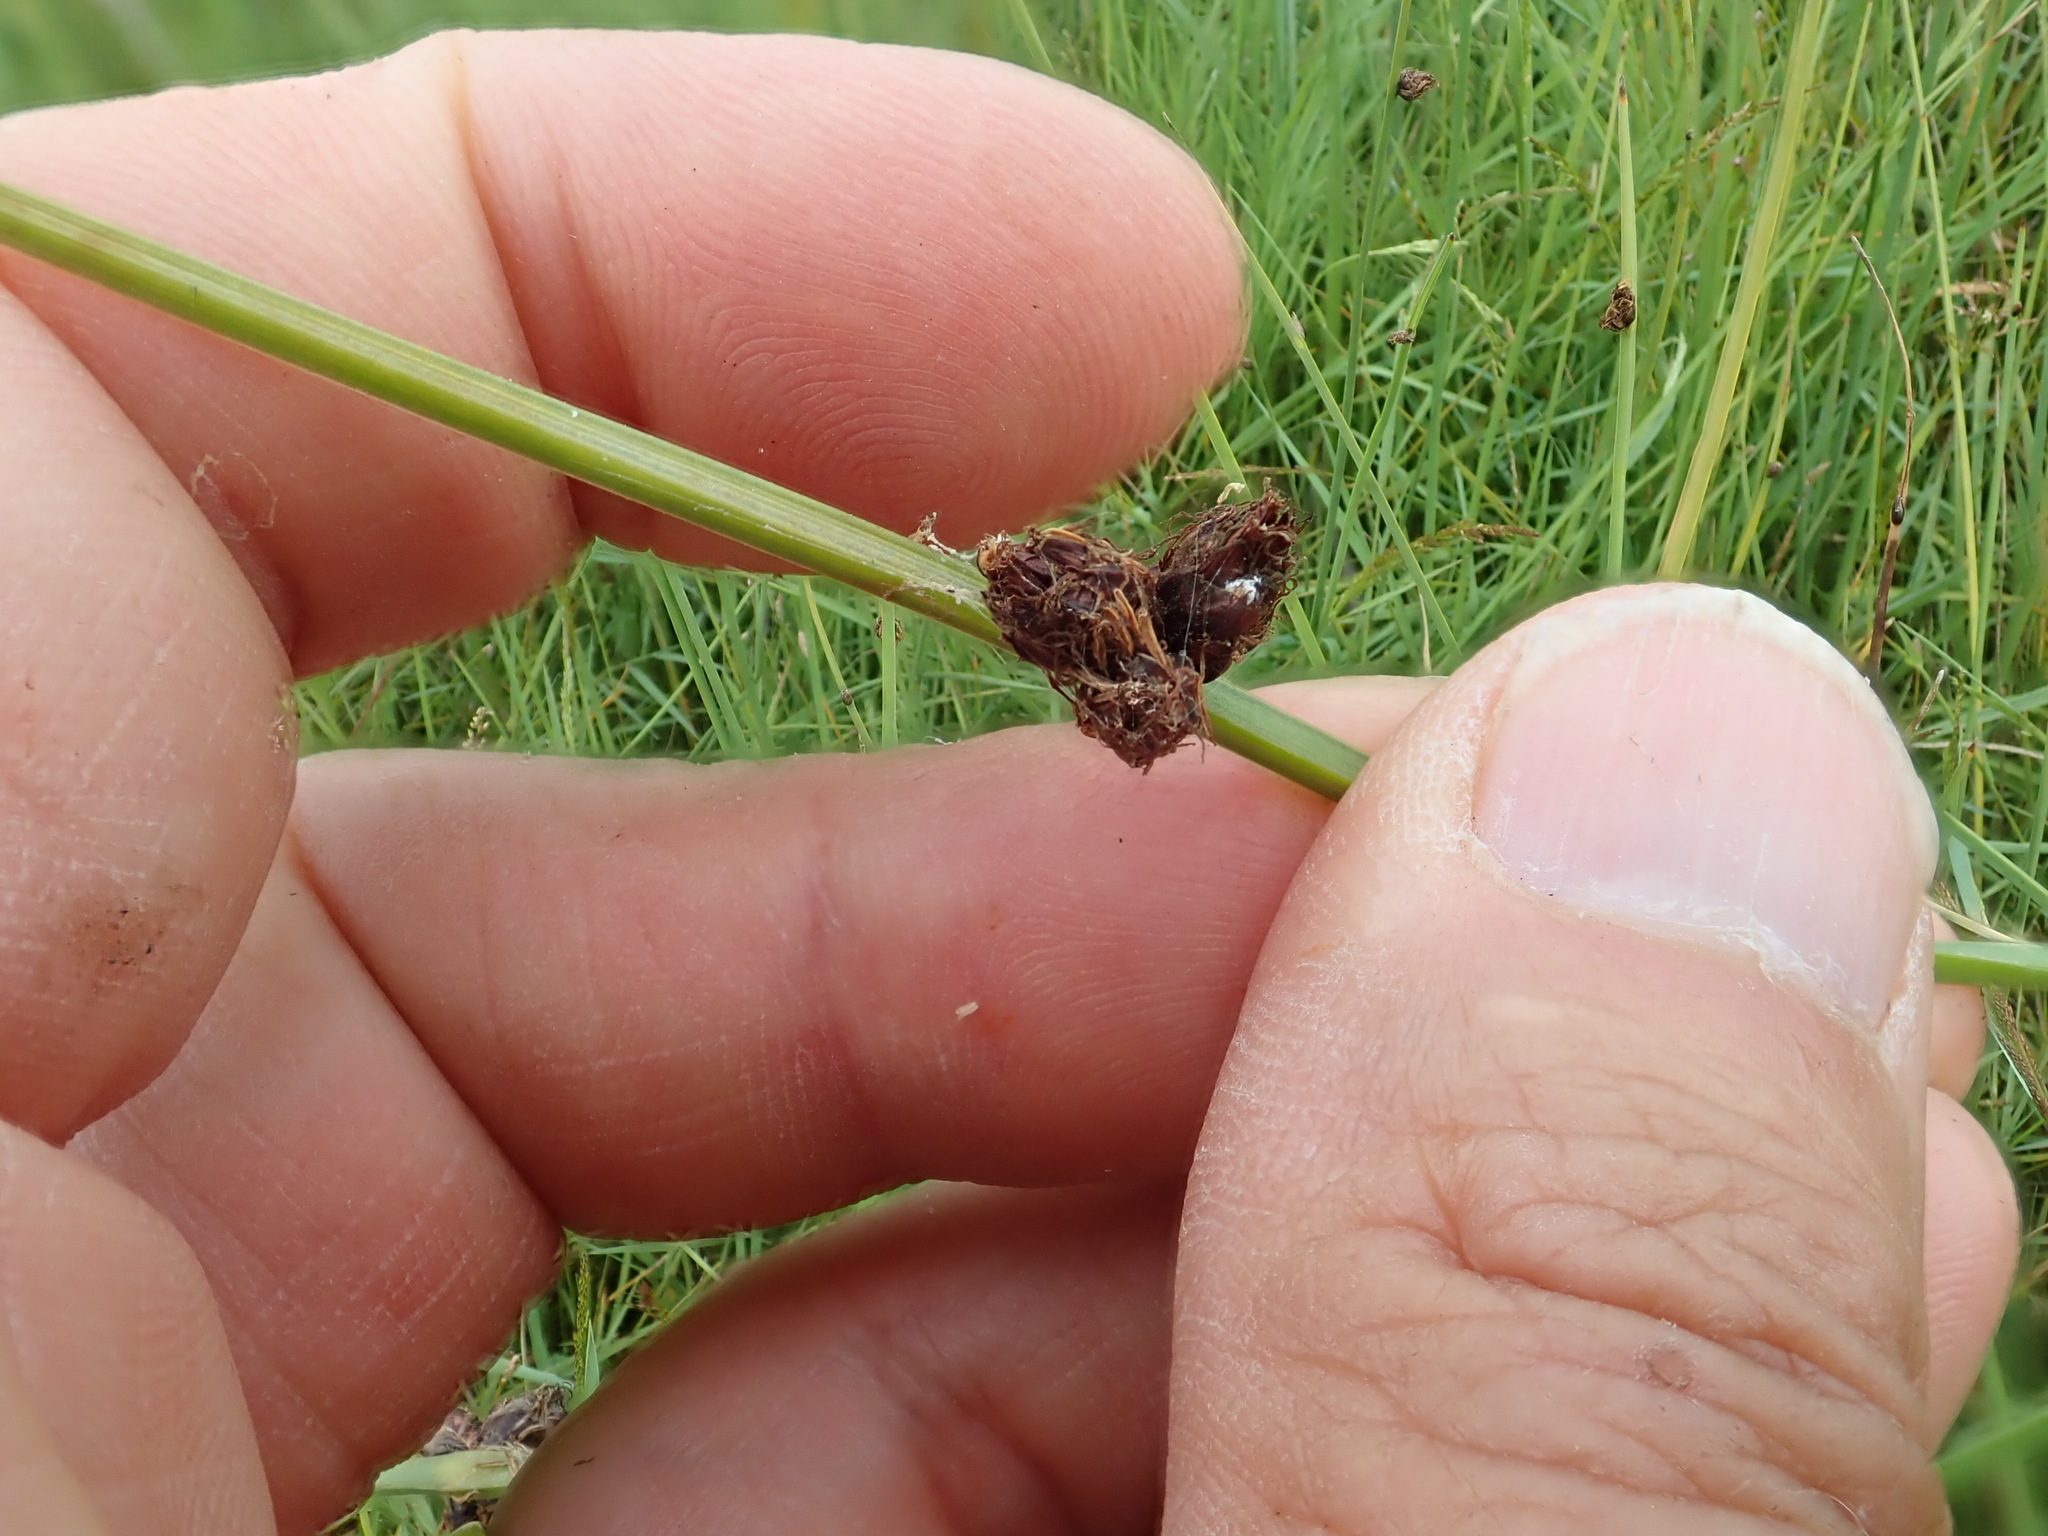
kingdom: Plantae
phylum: Tracheophyta
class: Liliopsida
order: Poales
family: Cyperaceae
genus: Schoenoplectus
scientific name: Schoenoplectus pungens
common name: Sharp club-rush
